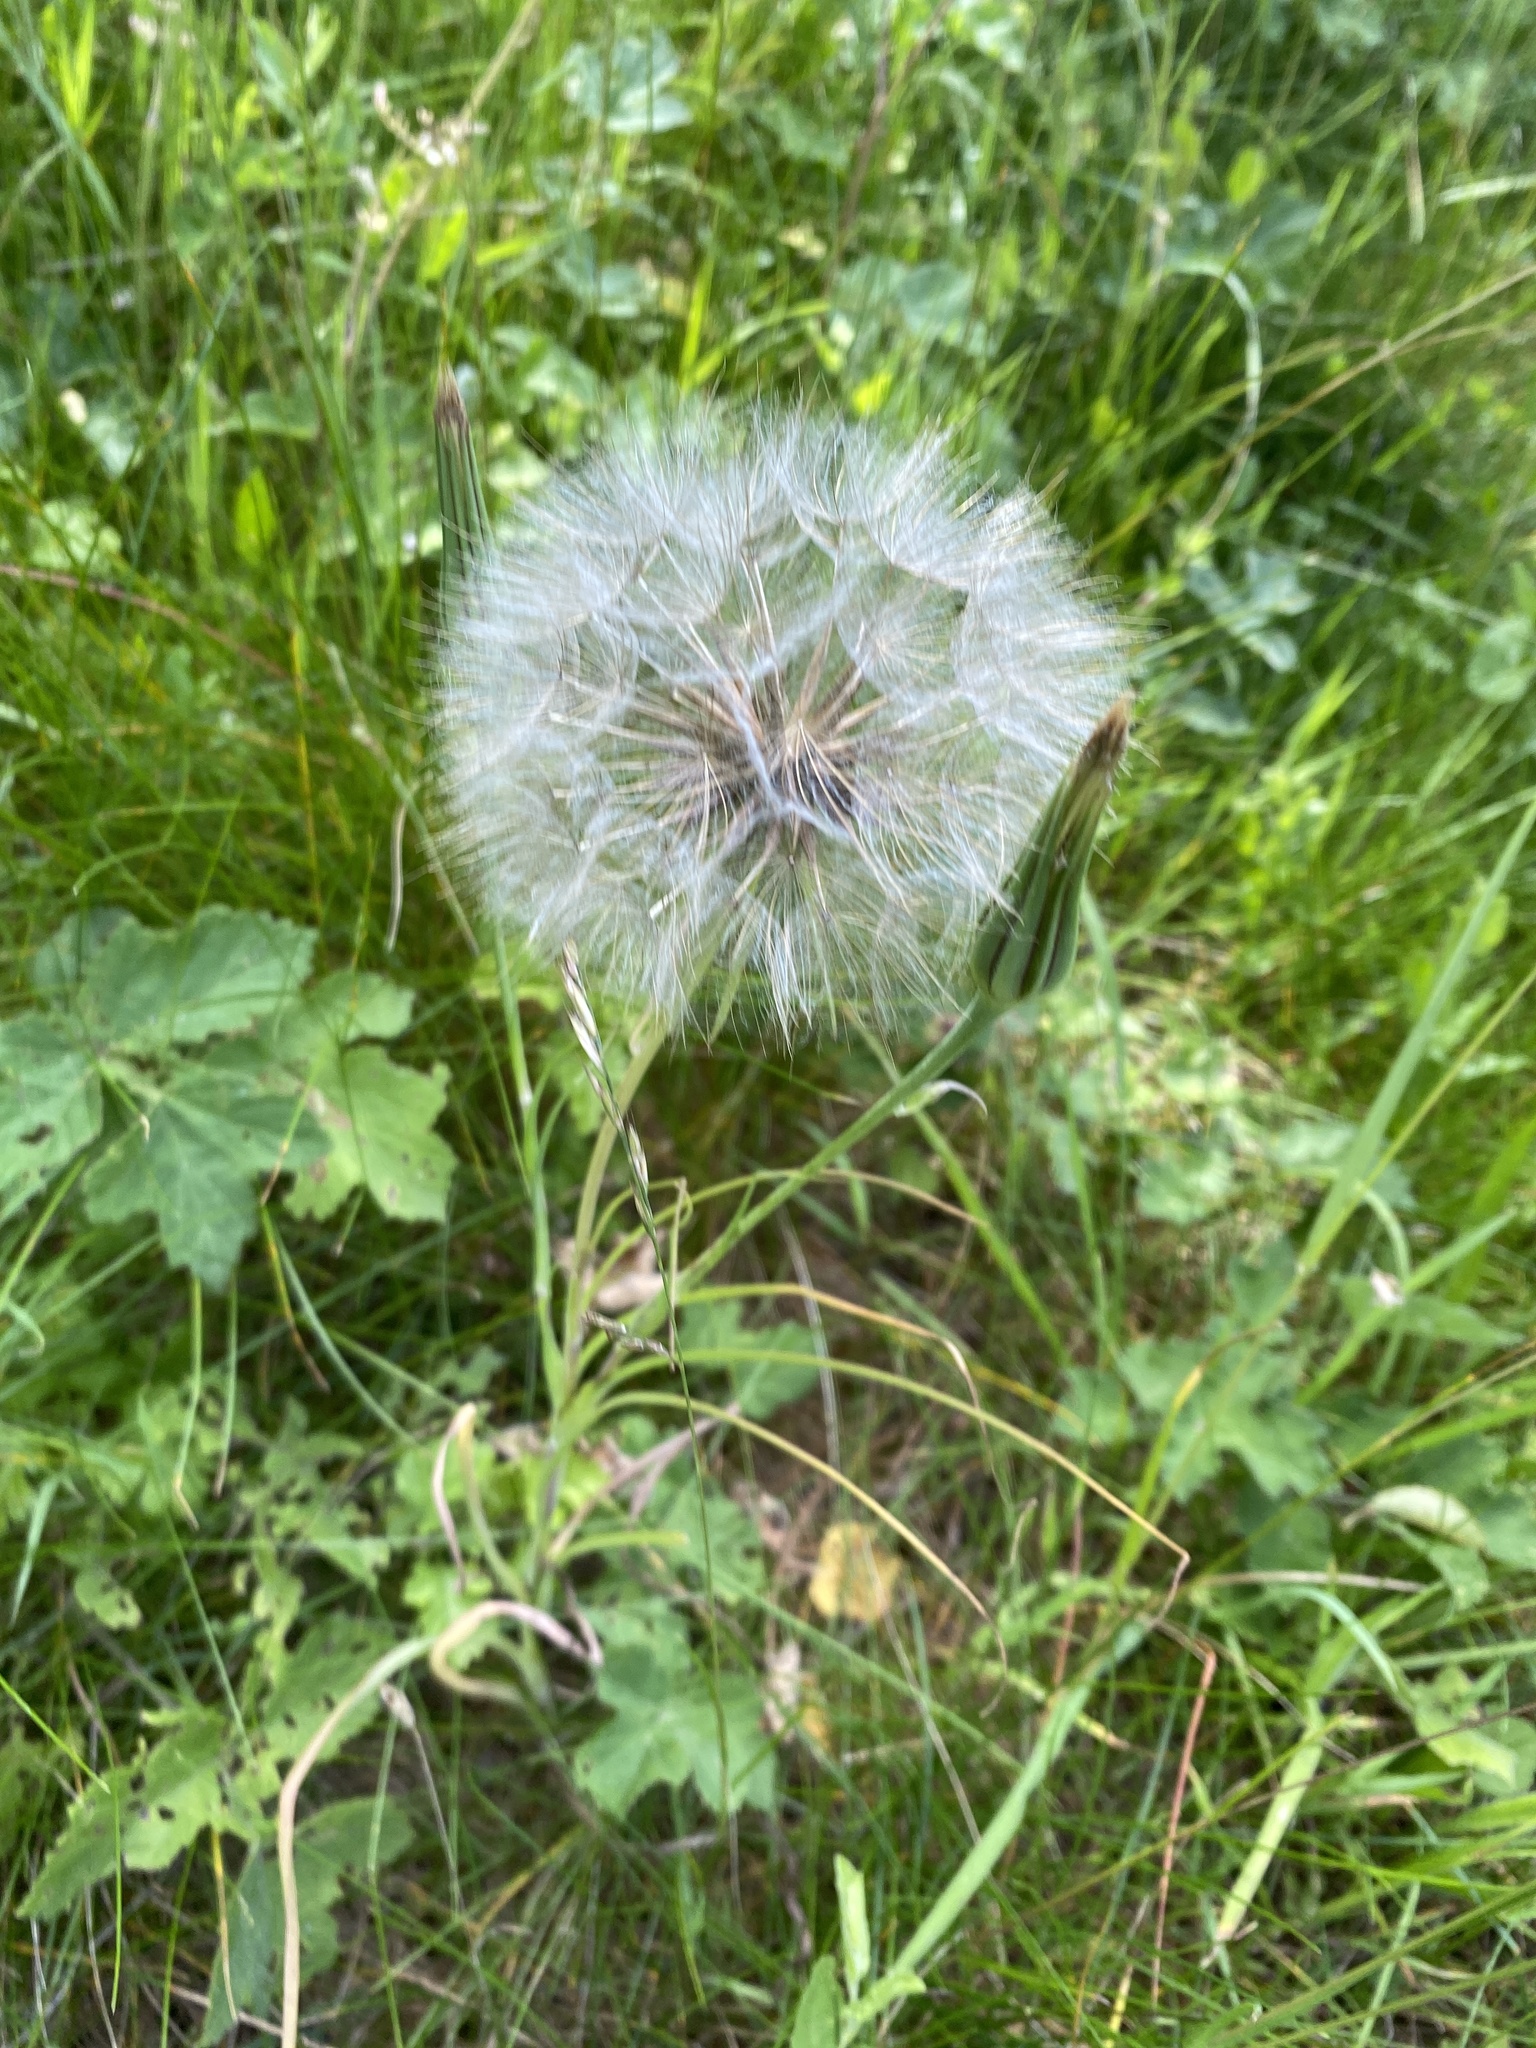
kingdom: Plantae
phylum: Tracheophyta
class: Magnoliopsida
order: Asterales
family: Asteraceae
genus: Tragopogon
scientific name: Tragopogon pratensis
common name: Goat's-beard
